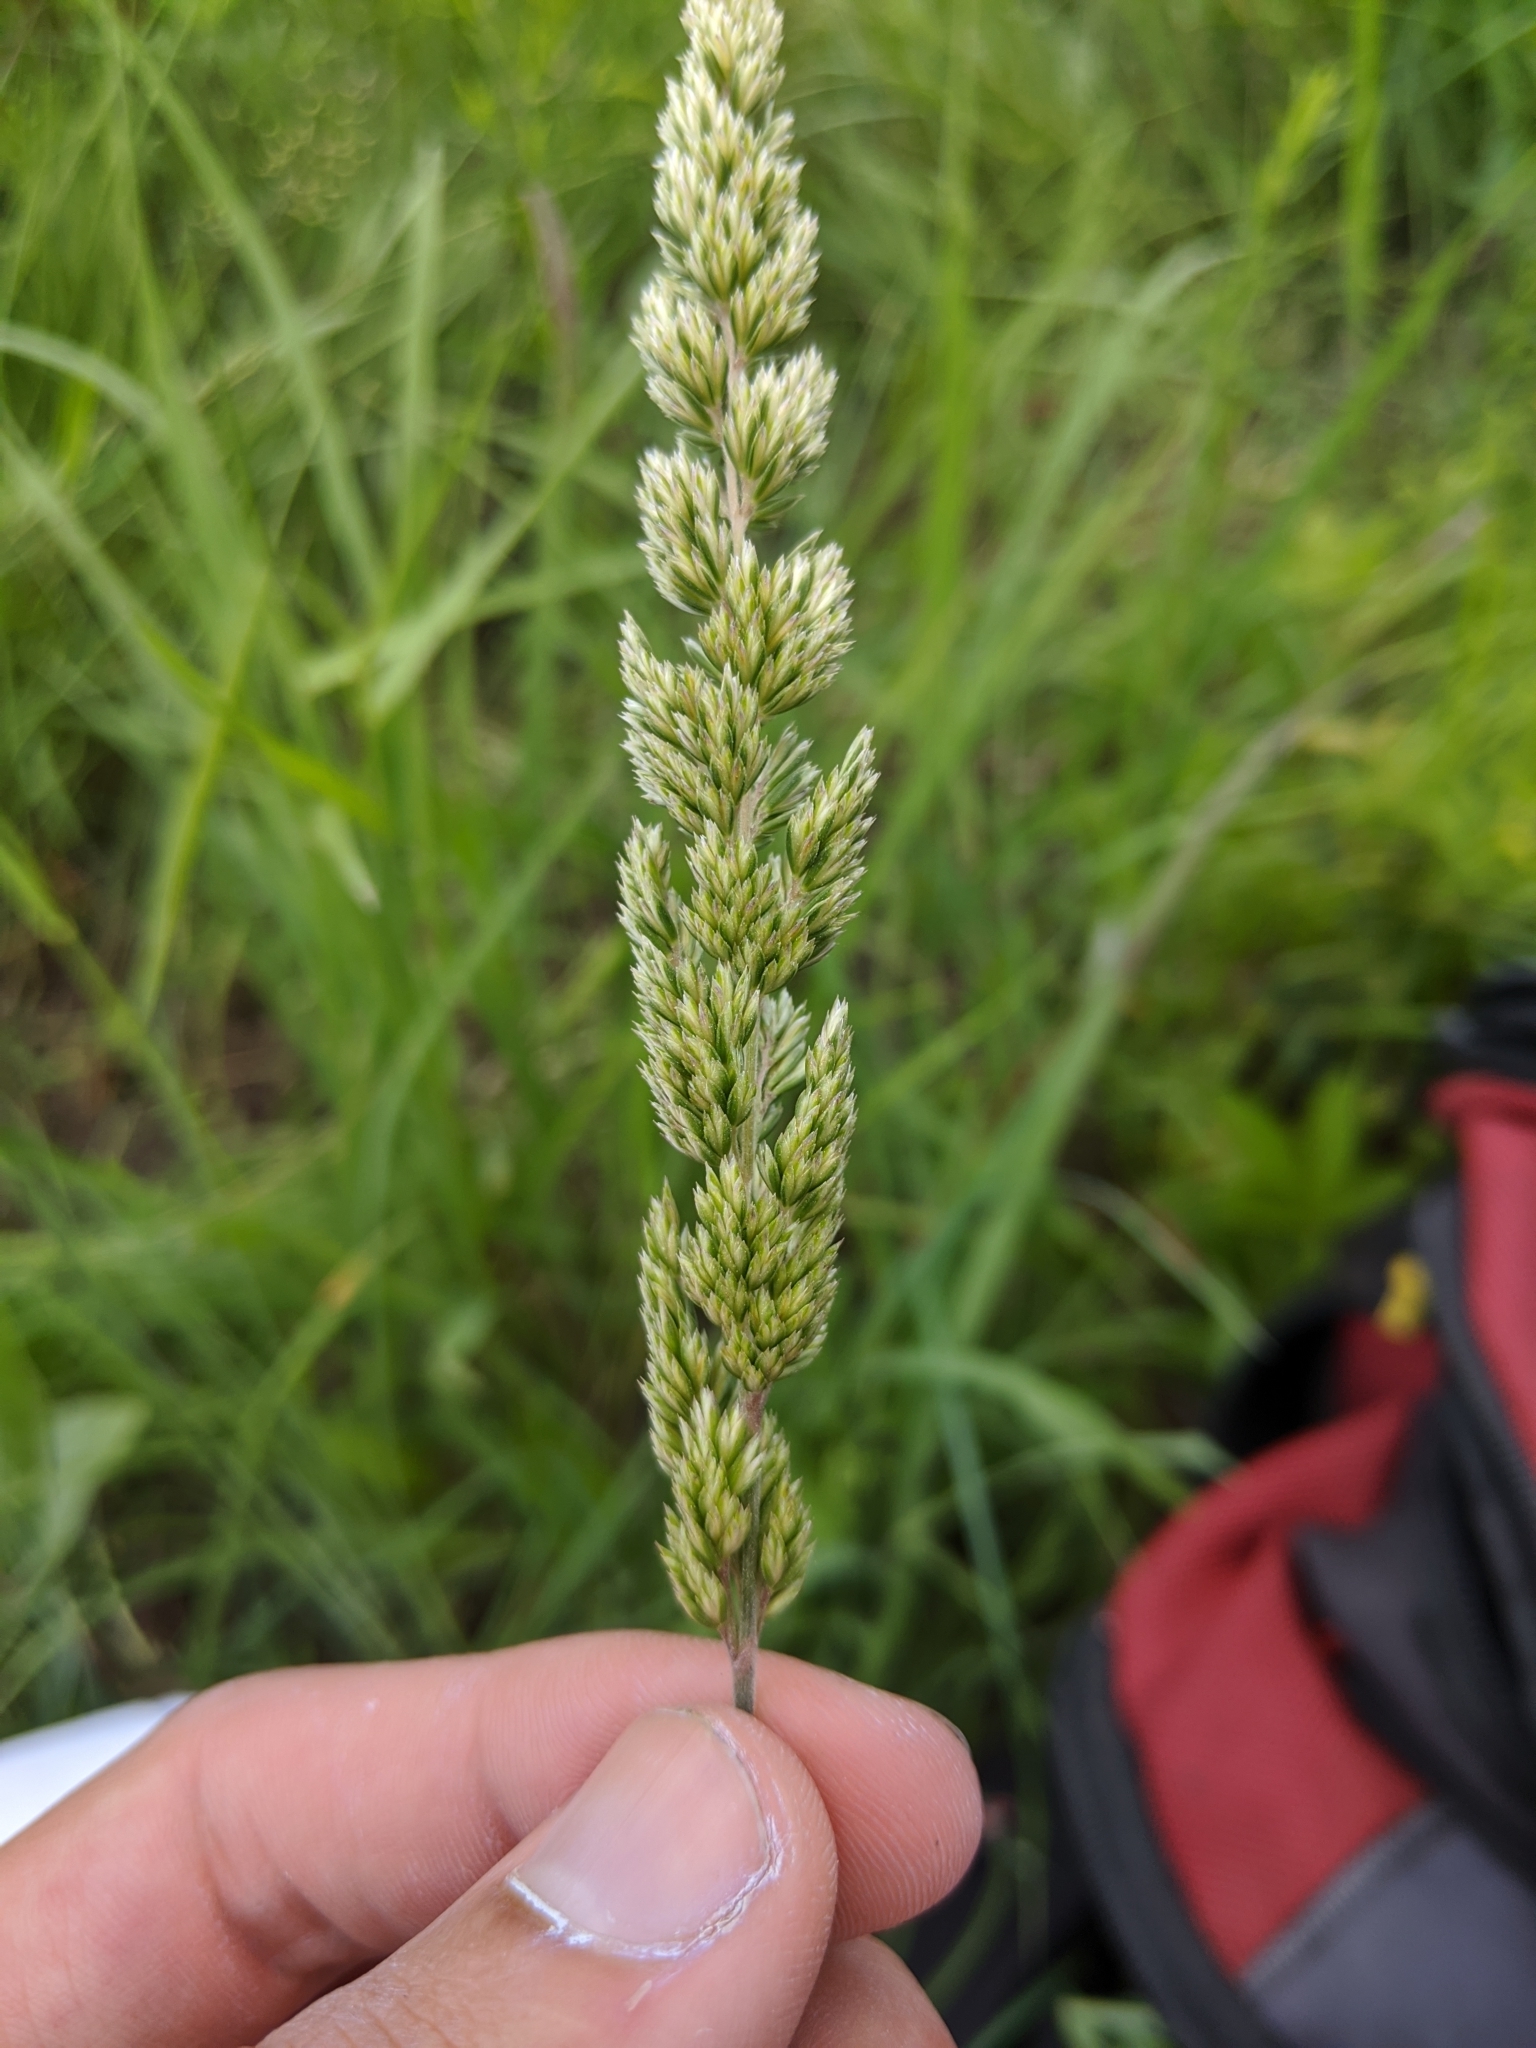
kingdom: Plantae
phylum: Tracheophyta
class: Liliopsida
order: Poales
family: Poaceae
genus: Koeleria
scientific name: Koeleria macrantha
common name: Crested hair-grass
